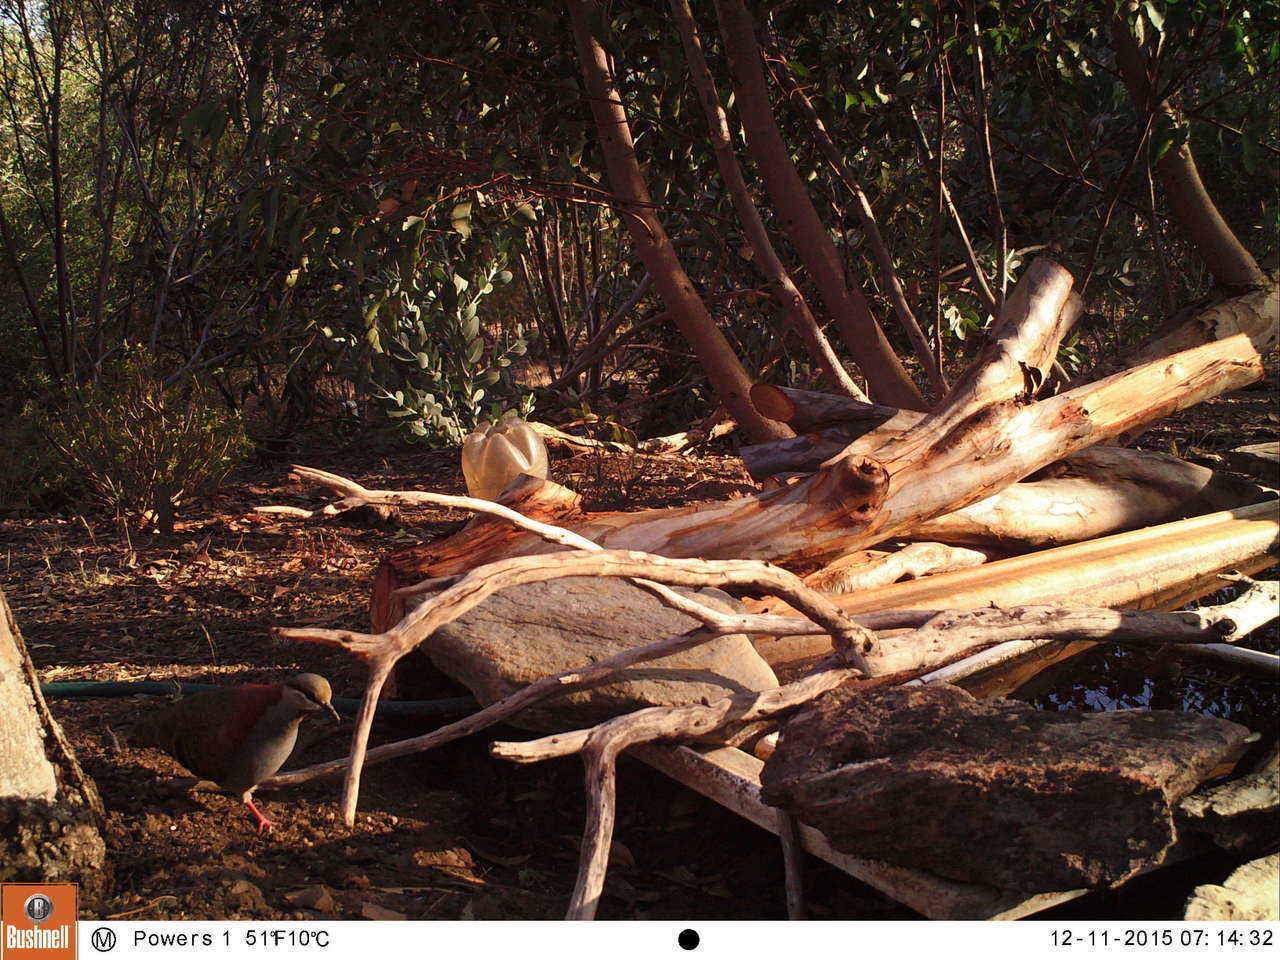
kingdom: Animalia
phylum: Chordata
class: Aves
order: Columbiformes
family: Columbidae
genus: Phaps
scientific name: Phaps elegans
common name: Brush bronzewing
